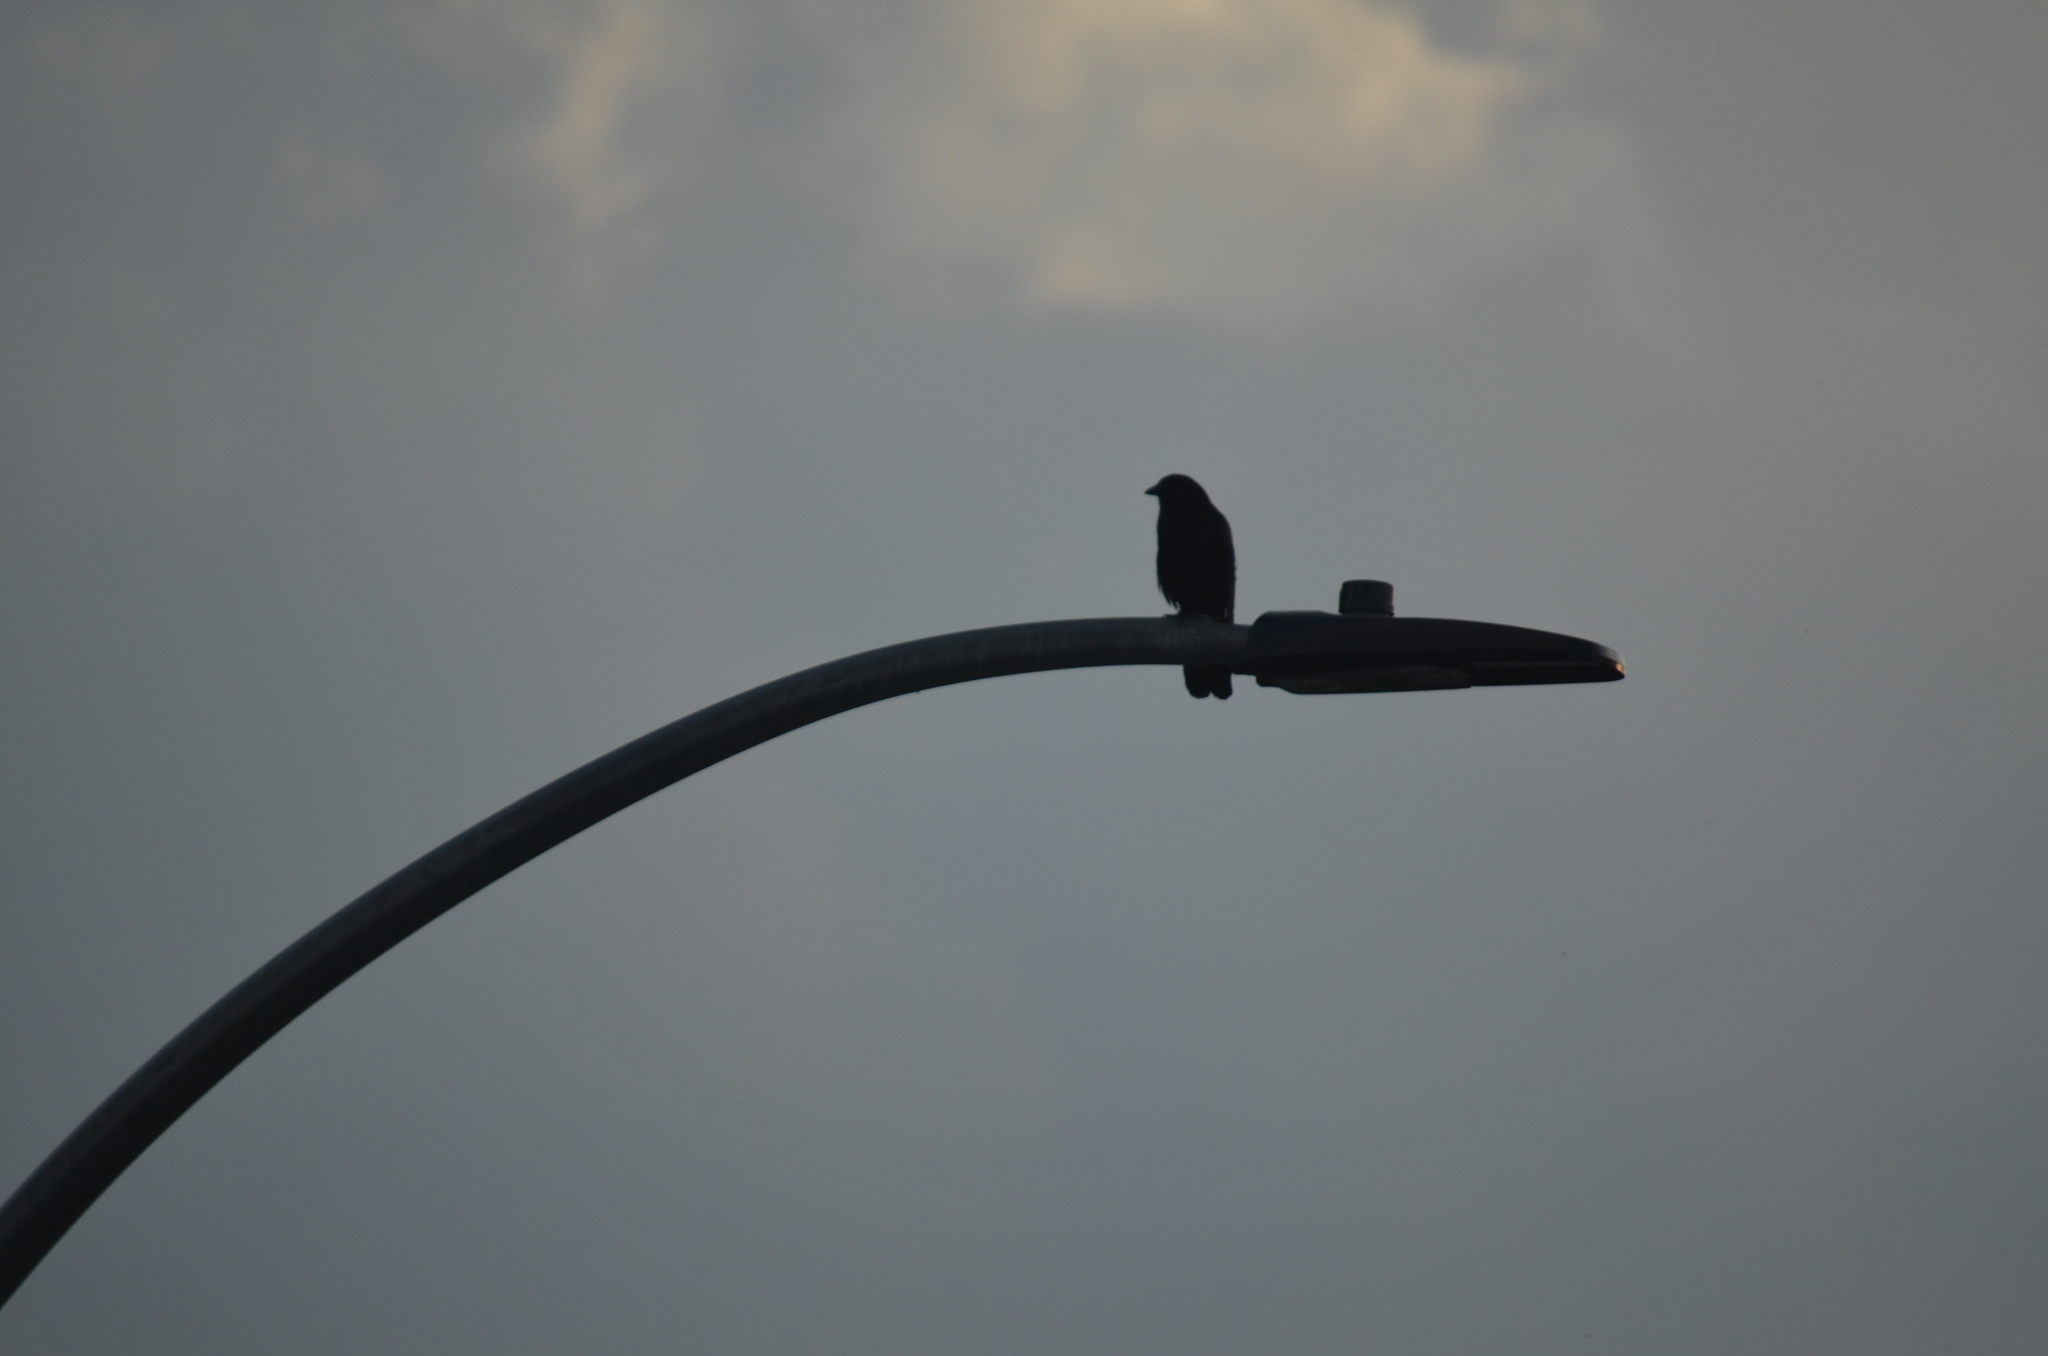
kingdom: Animalia
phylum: Chordata
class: Aves
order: Passeriformes
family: Corvidae
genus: Corvus
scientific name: Corvus brachyrhynchos
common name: American crow
